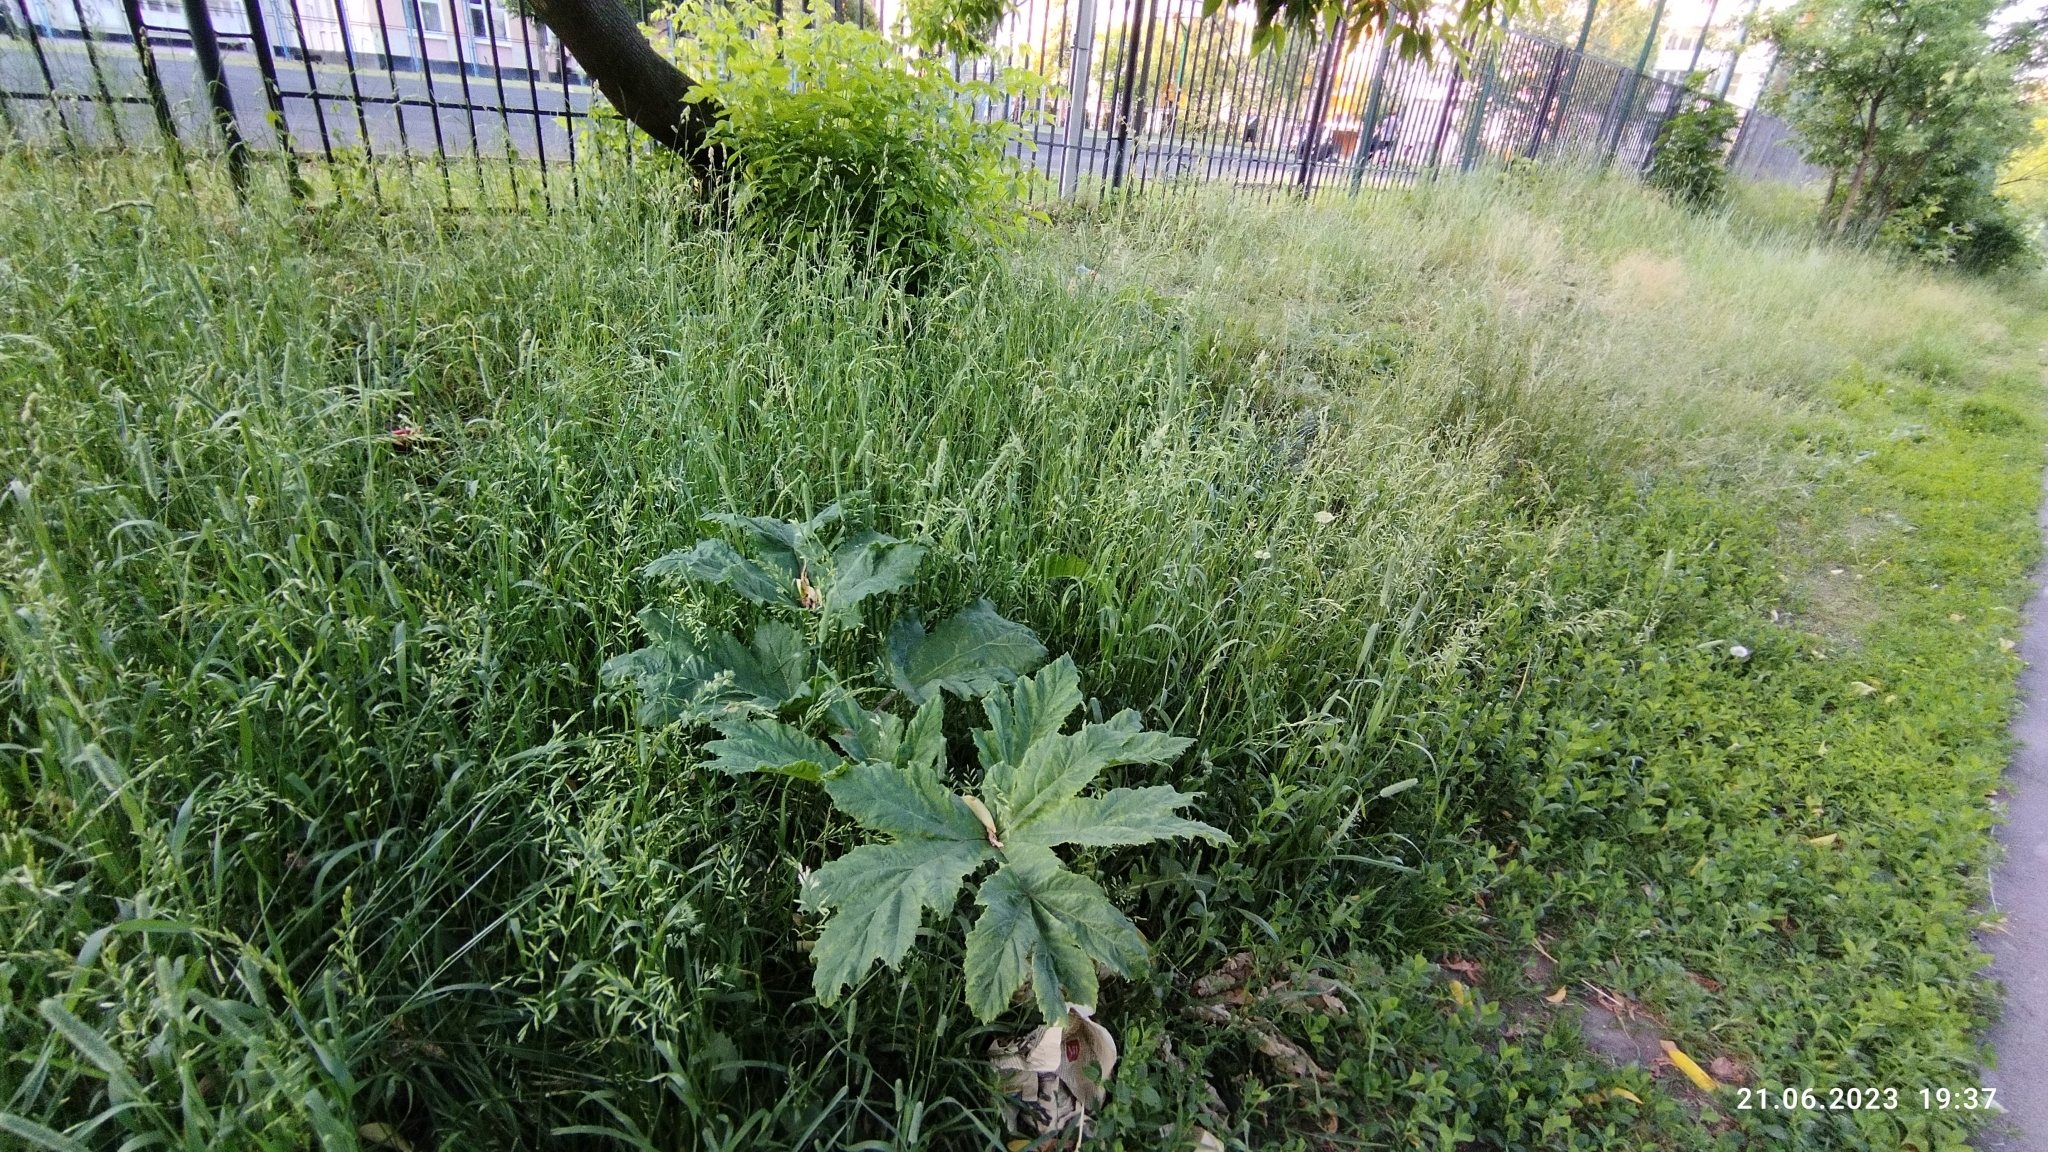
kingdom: Plantae
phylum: Tracheophyta
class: Magnoliopsida
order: Apiales
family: Apiaceae
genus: Heracleum
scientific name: Heracleum sosnowskyi
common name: Sosnowsky's hogweed
